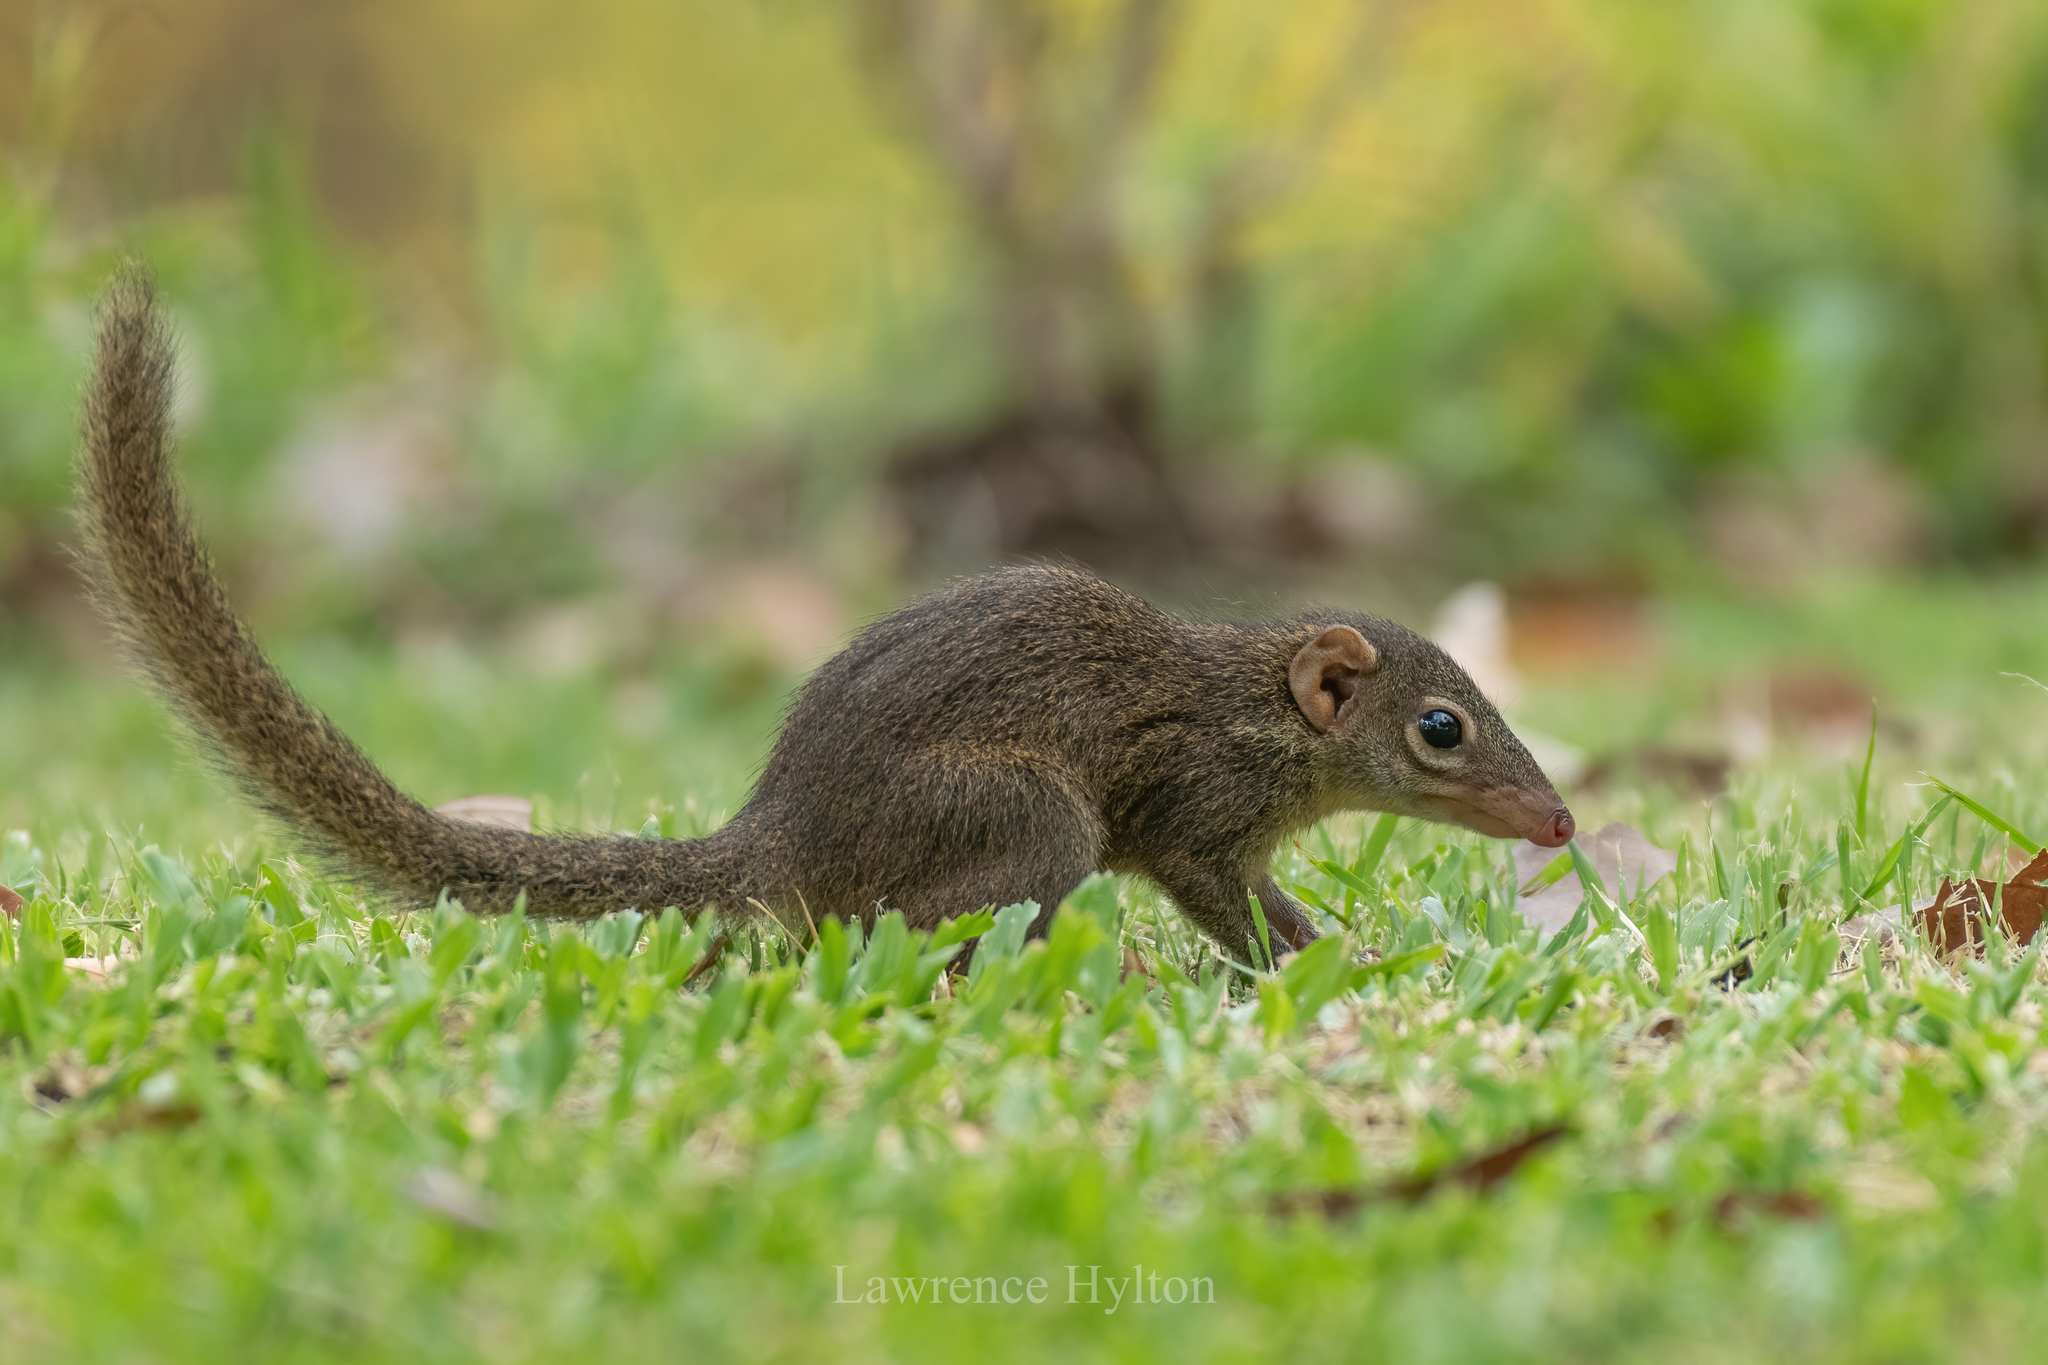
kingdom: Animalia
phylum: Chordata
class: Mammalia
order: Scandentia
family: Tupaiidae
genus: Tupaia
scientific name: Tupaia belangeri
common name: Northern treeshrew
